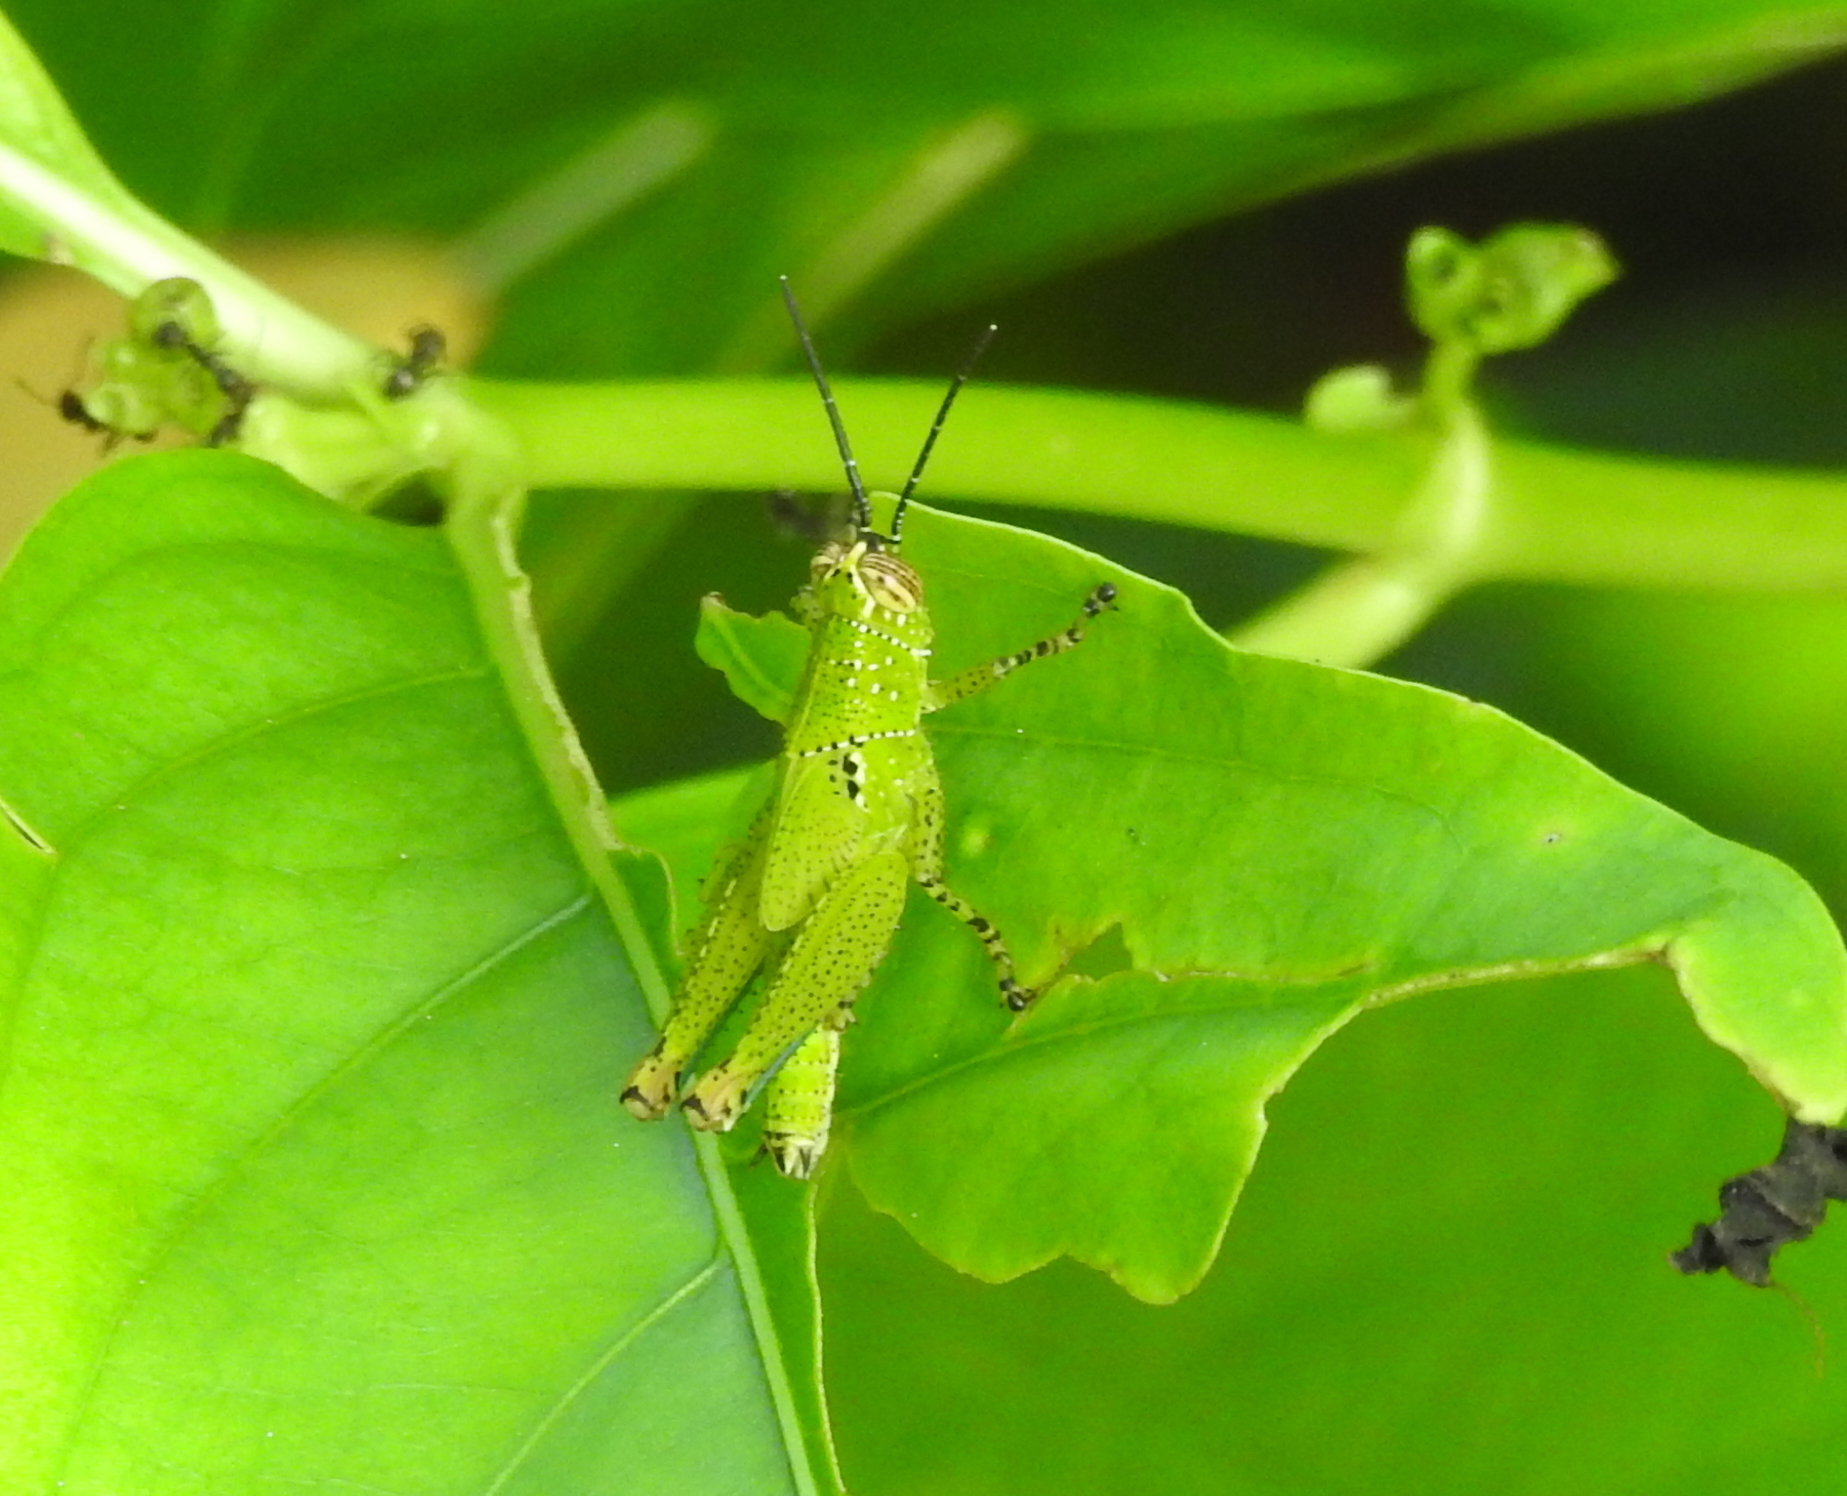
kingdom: Animalia
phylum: Arthropoda
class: Insecta
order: Orthoptera
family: Acrididae
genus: Xenocatantops
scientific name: Xenocatantops humile
